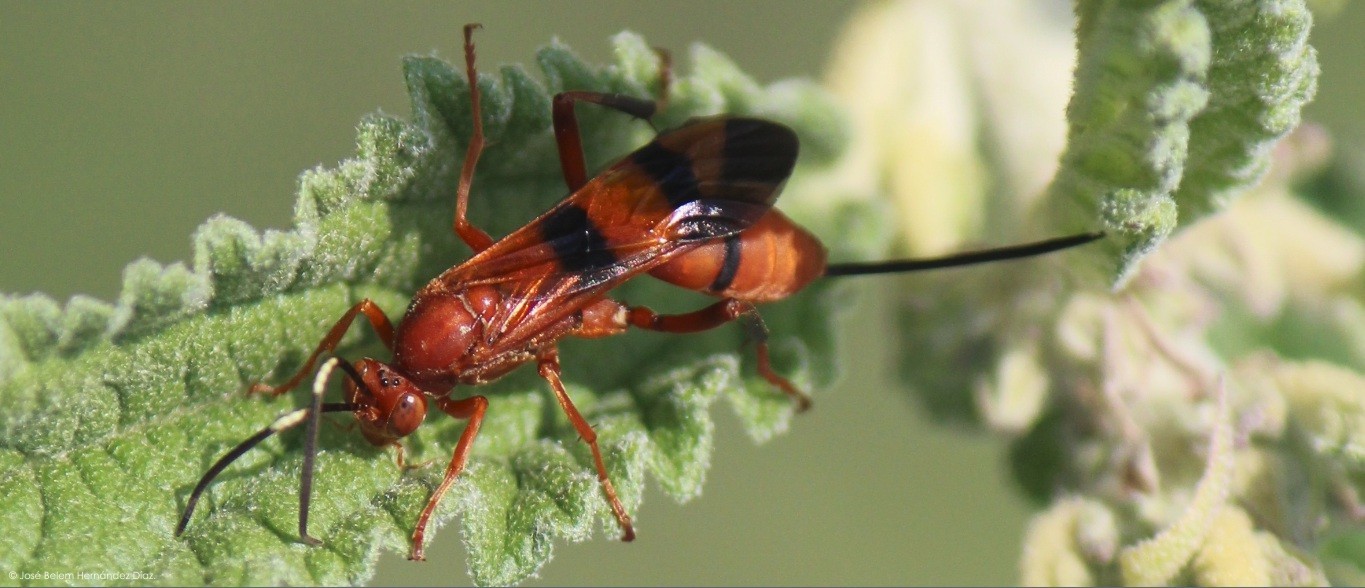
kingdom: Animalia
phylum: Arthropoda
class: Insecta
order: Hymenoptera
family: Ichneumonidae
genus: Compsocryptus
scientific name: Compsocryptus calipterus
